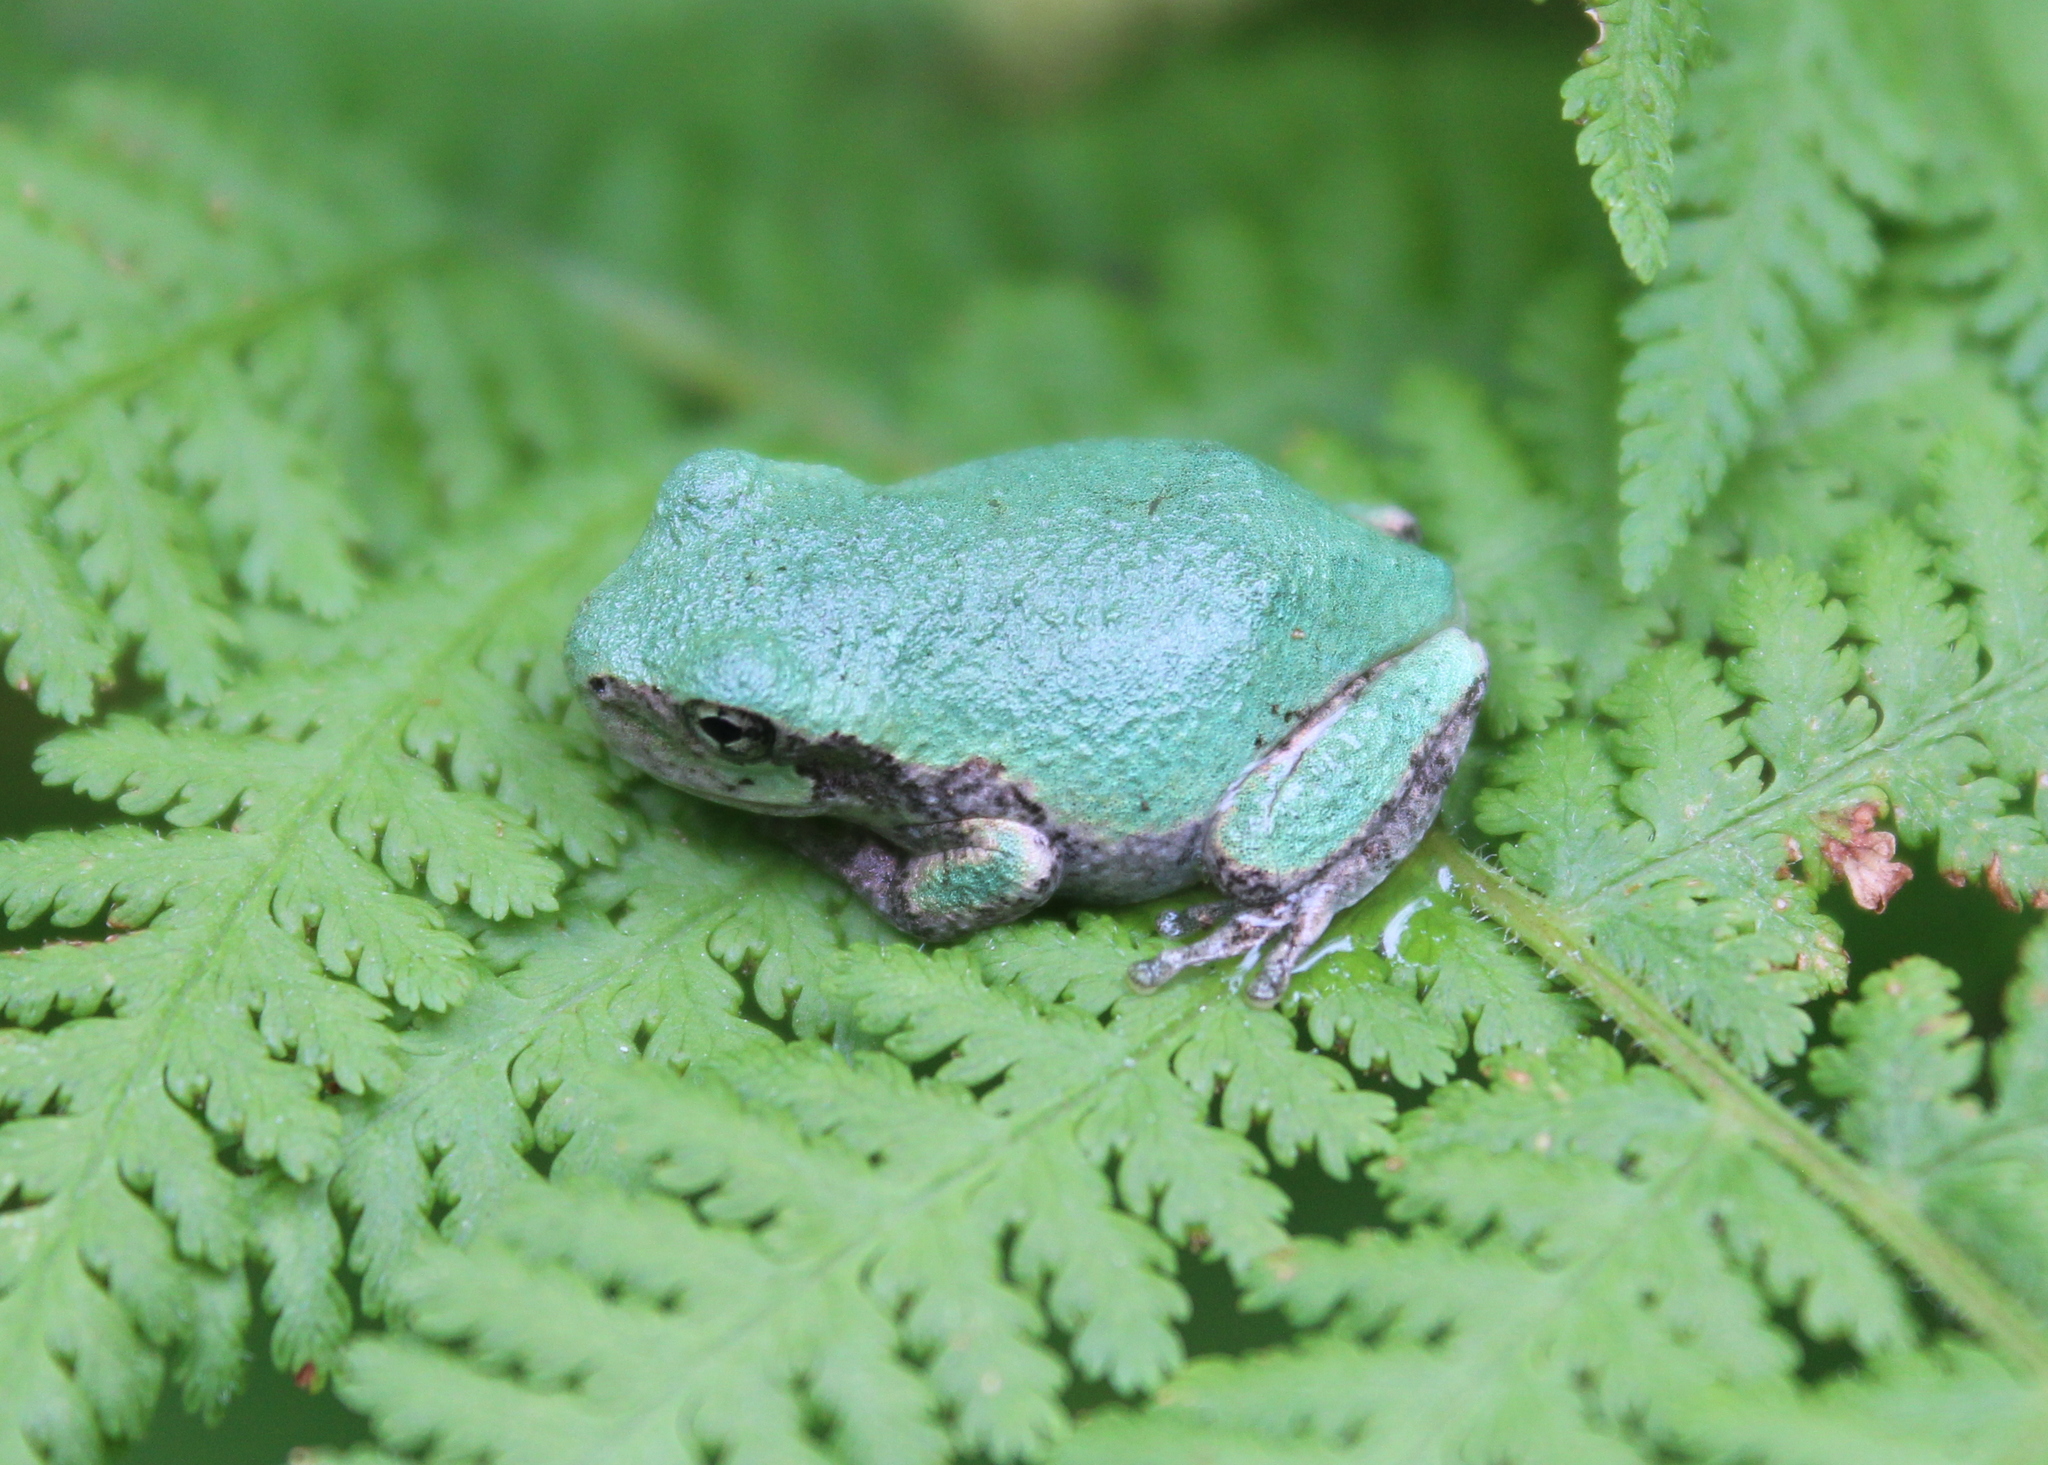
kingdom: Animalia
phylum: Chordata
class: Amphibia
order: Anura
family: Hylidae
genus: Dryophytes
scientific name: Dryophytes versicolor
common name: Gray treefrog
